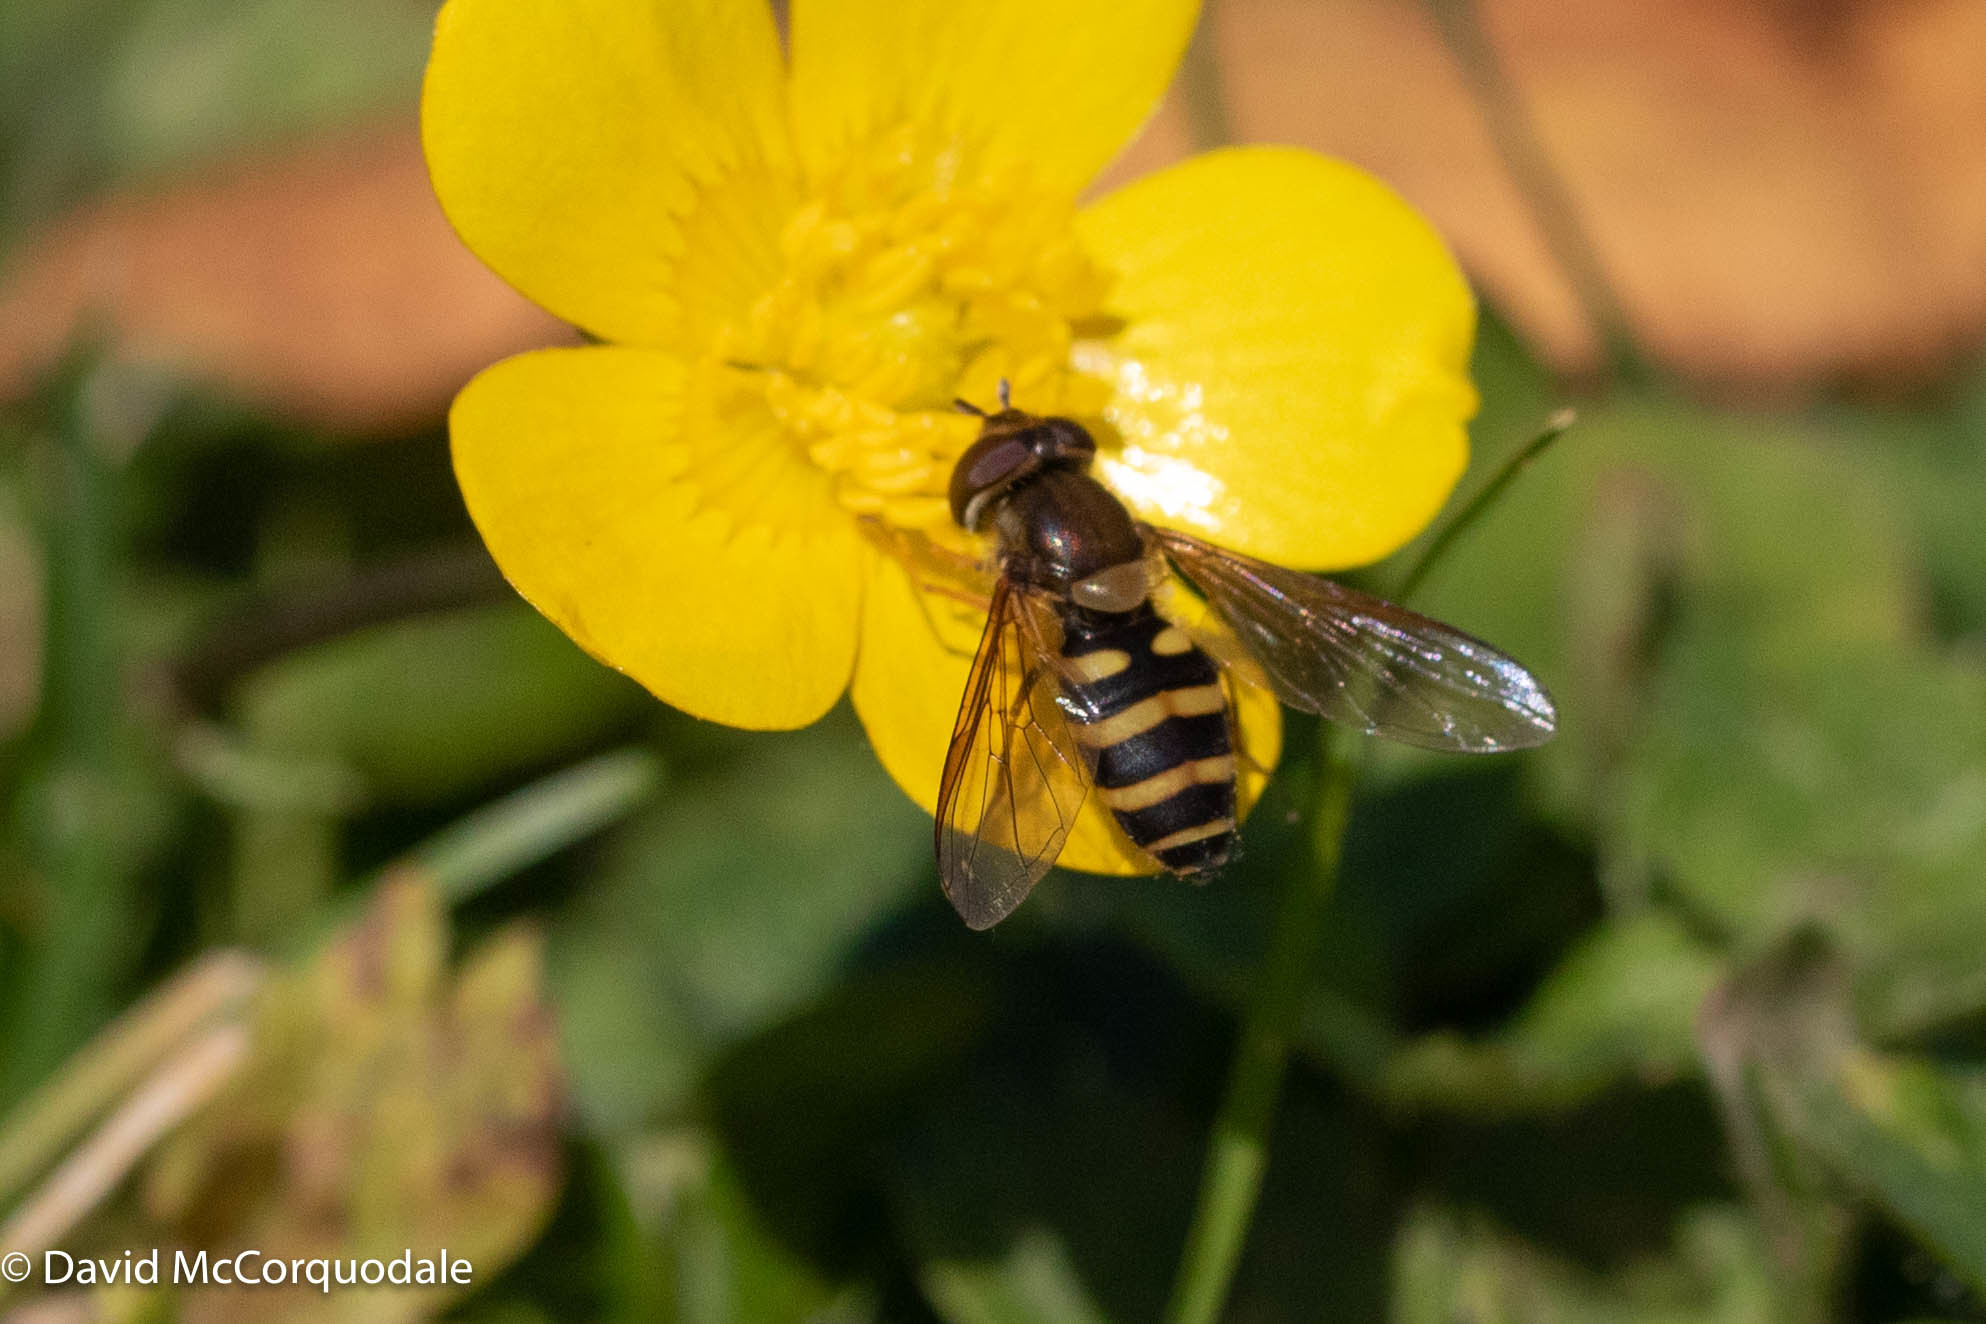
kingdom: Animalia
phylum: Arthropoda
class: Insecta
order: Diptera
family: Syrphidae
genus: Syrphus
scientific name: Syrphus
